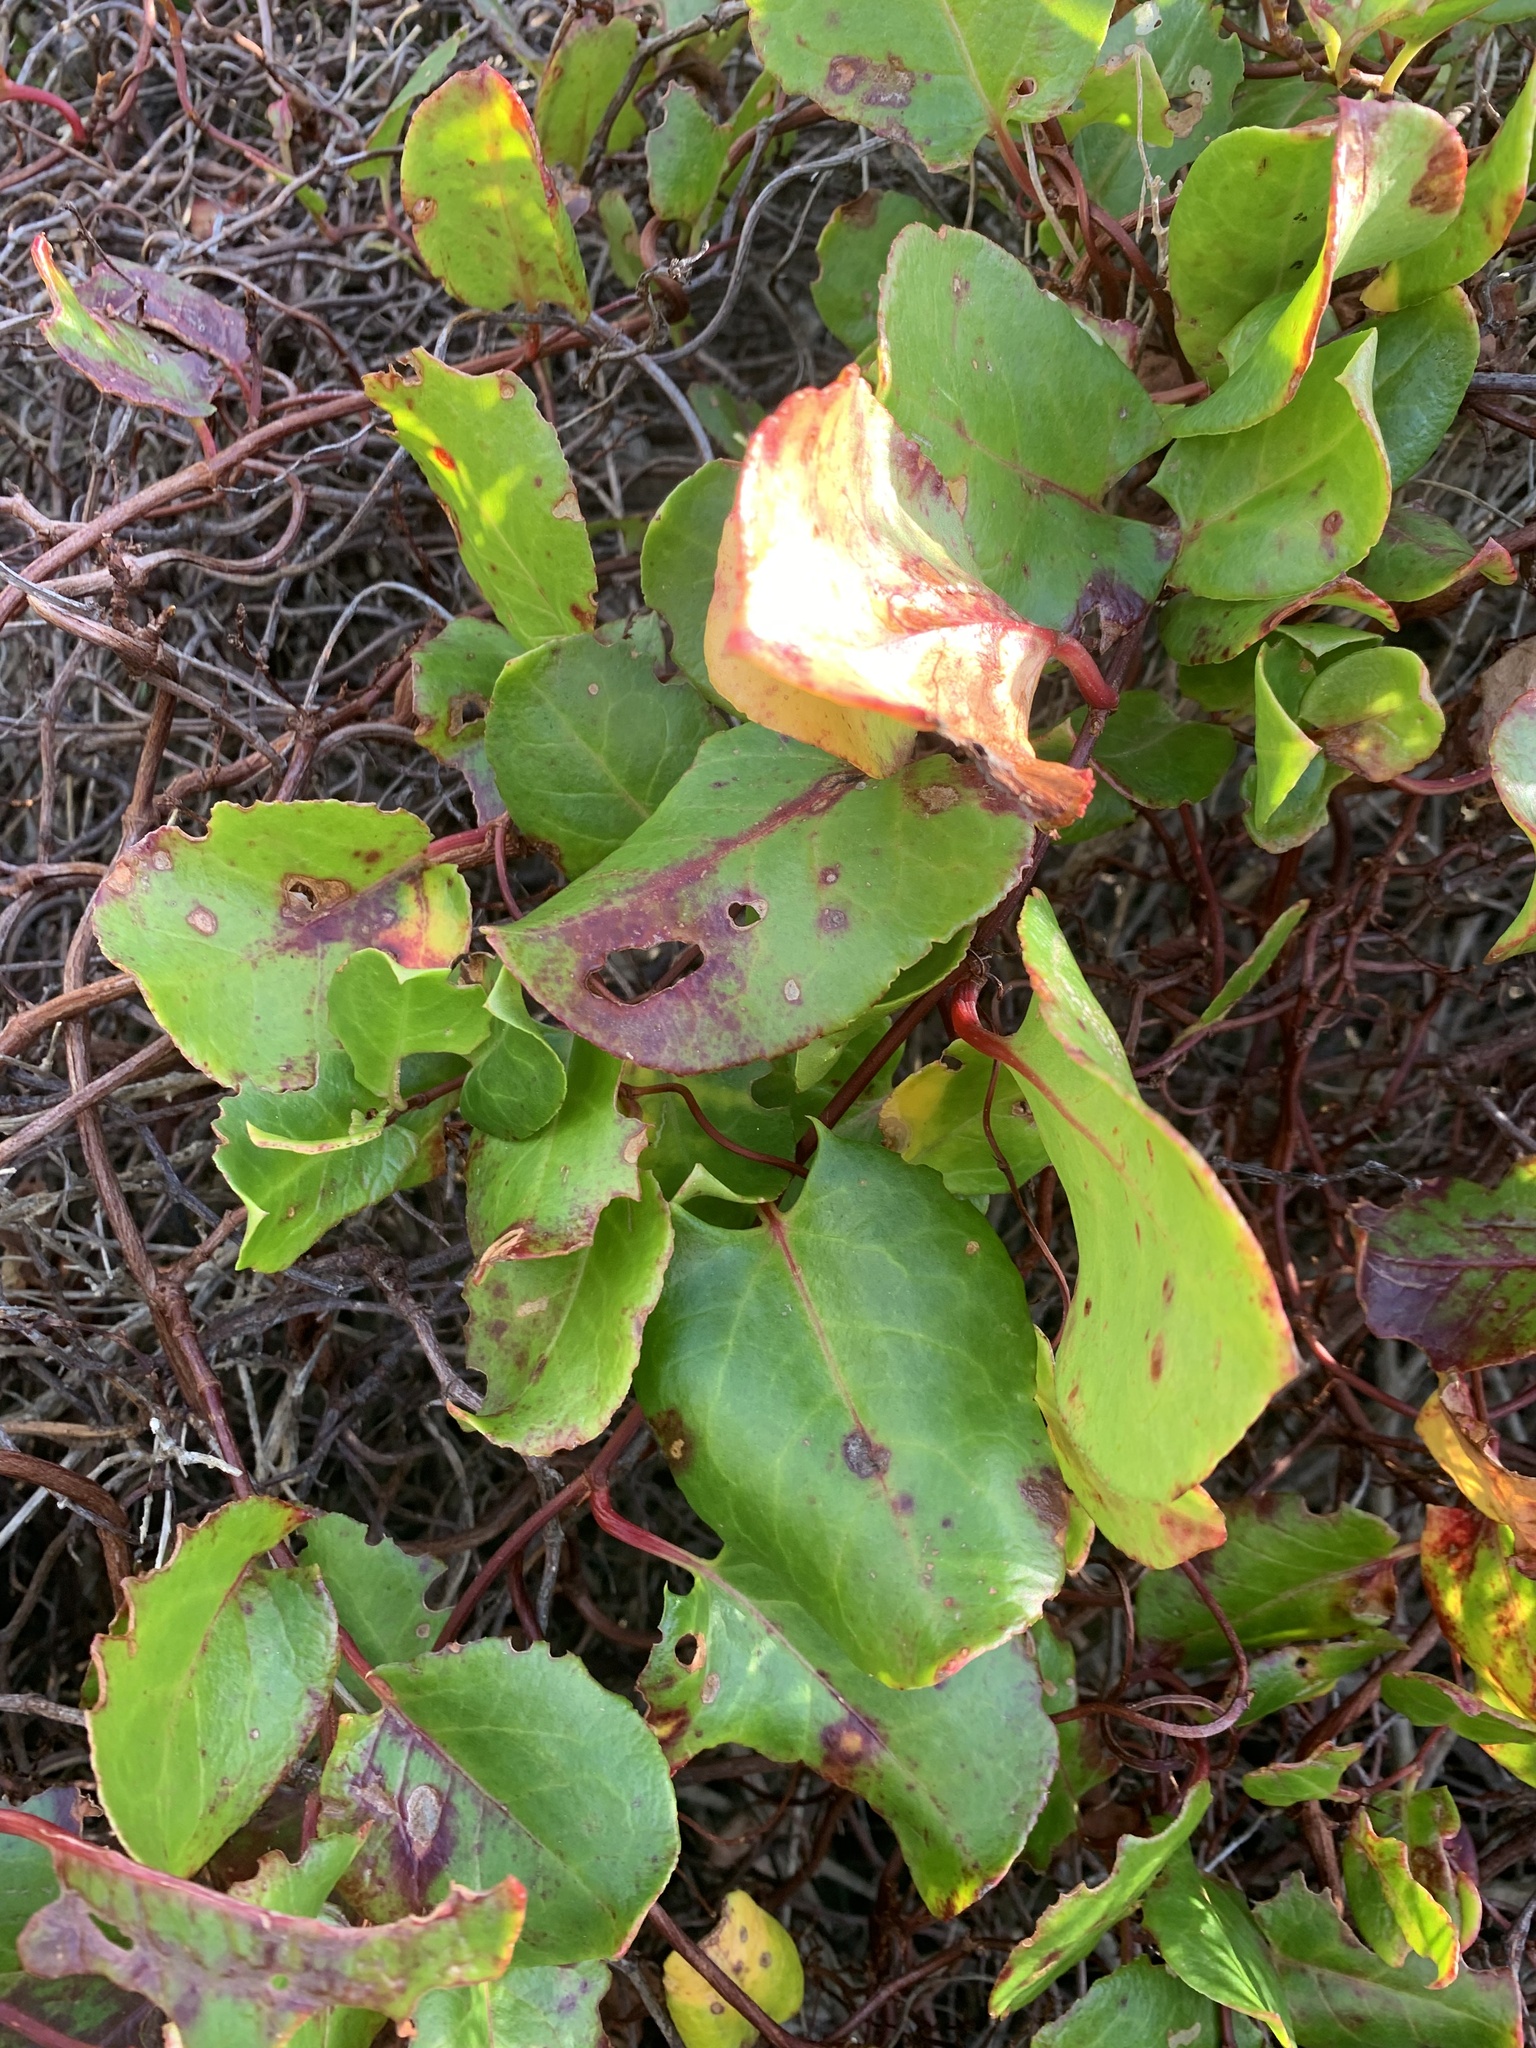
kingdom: Plantae
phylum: Tracheophyta
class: Magnoliopsida
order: Caryophyllales
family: Polygonaceae
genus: Muehlenbeckia
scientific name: Muehlenbeckia adpressa
